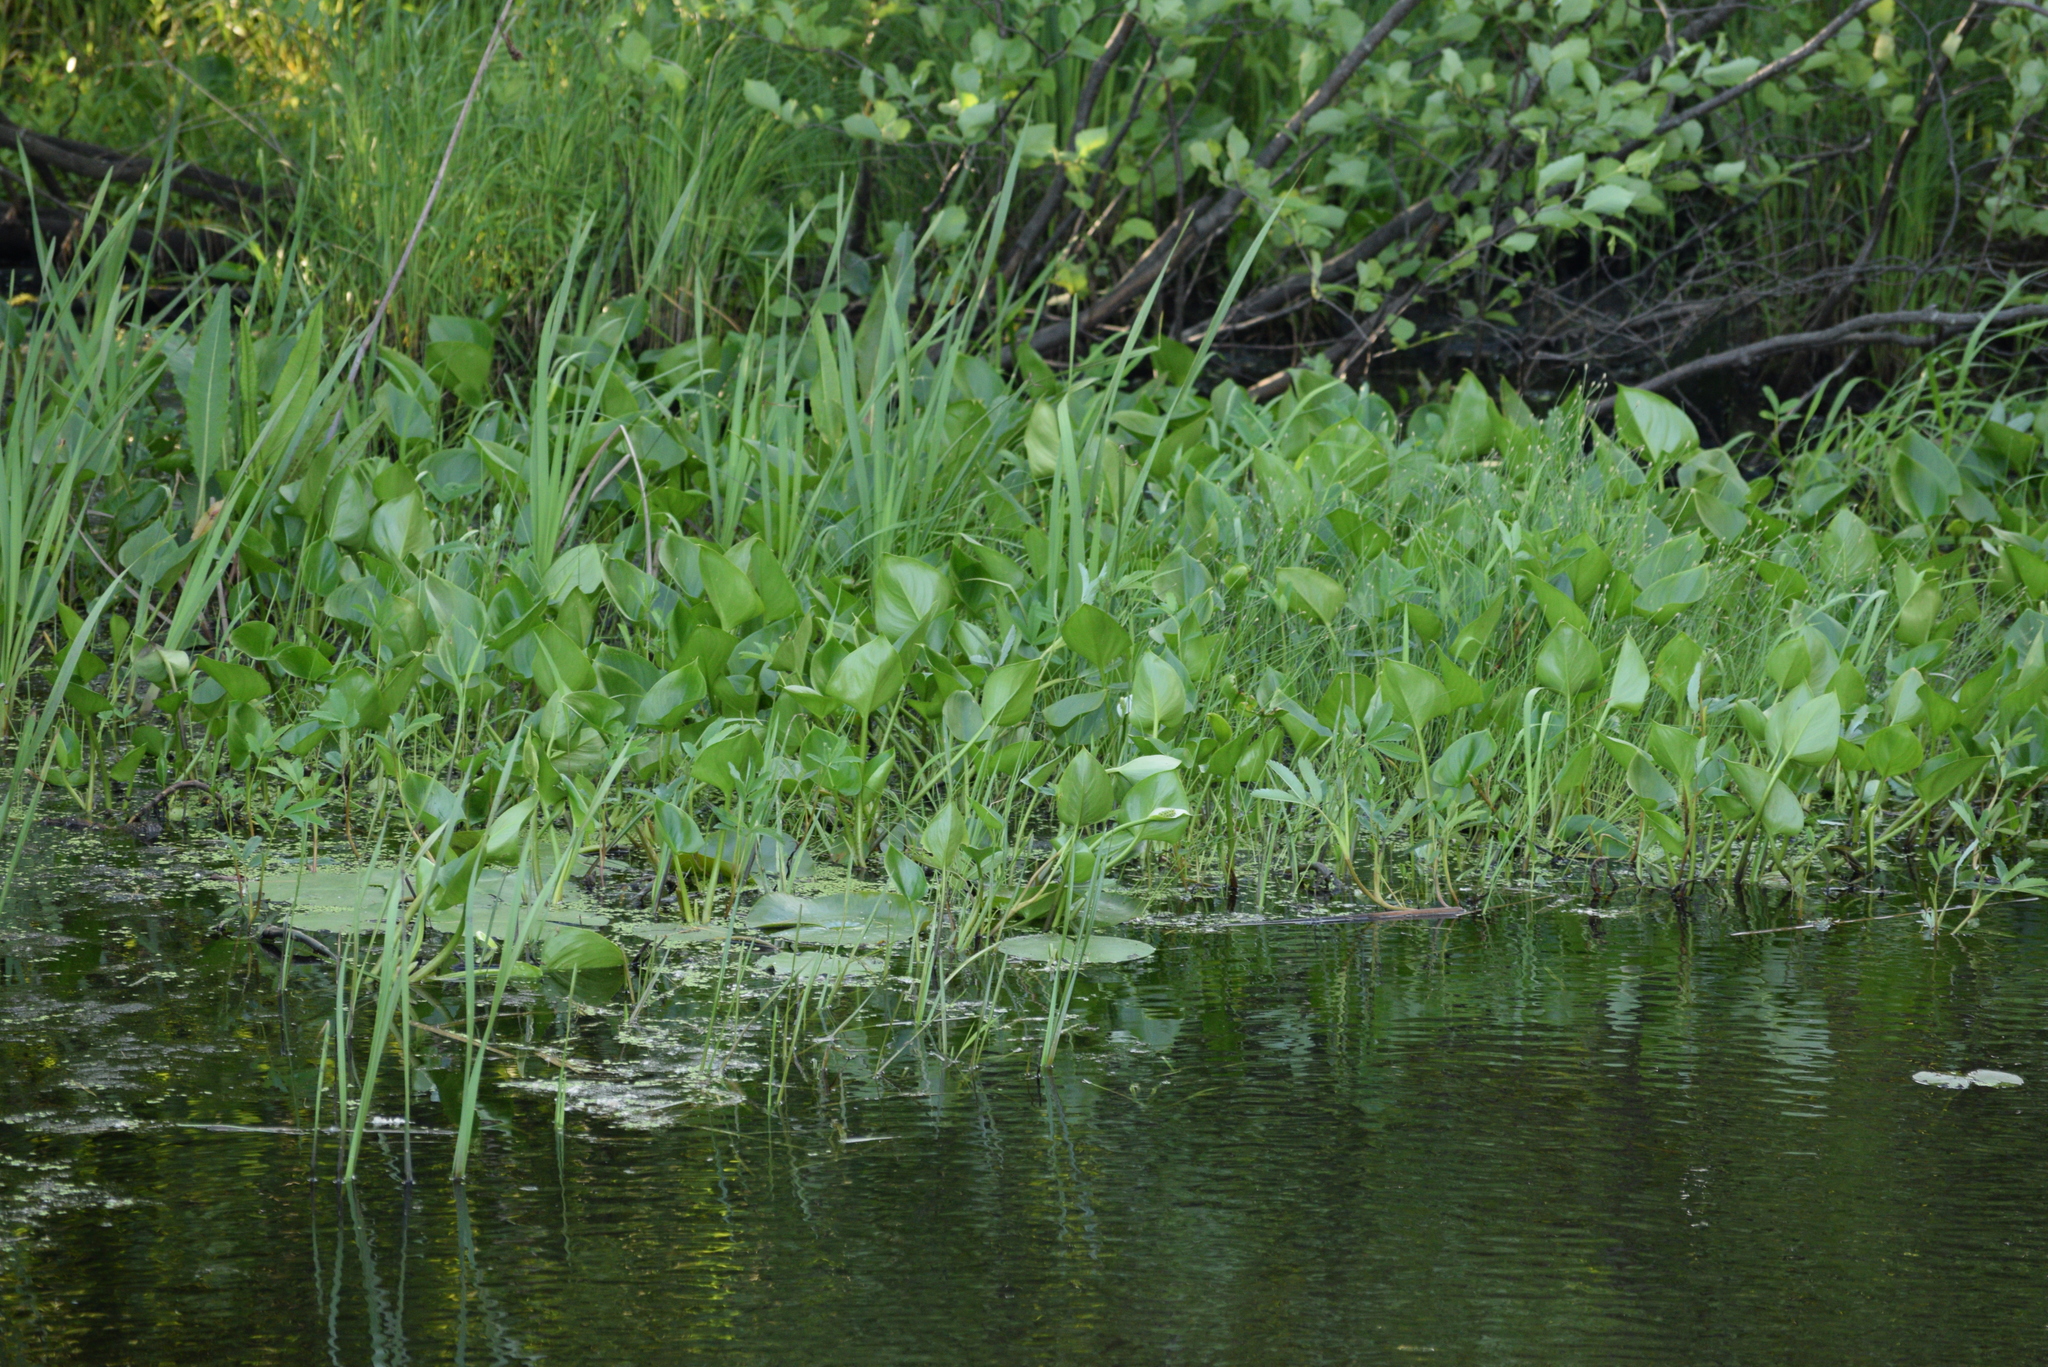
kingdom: Plantae
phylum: Tracheophyta
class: Liliopsida
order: Alismatales
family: Araceae
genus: Calla
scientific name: Calla palustris
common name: Bog arum
